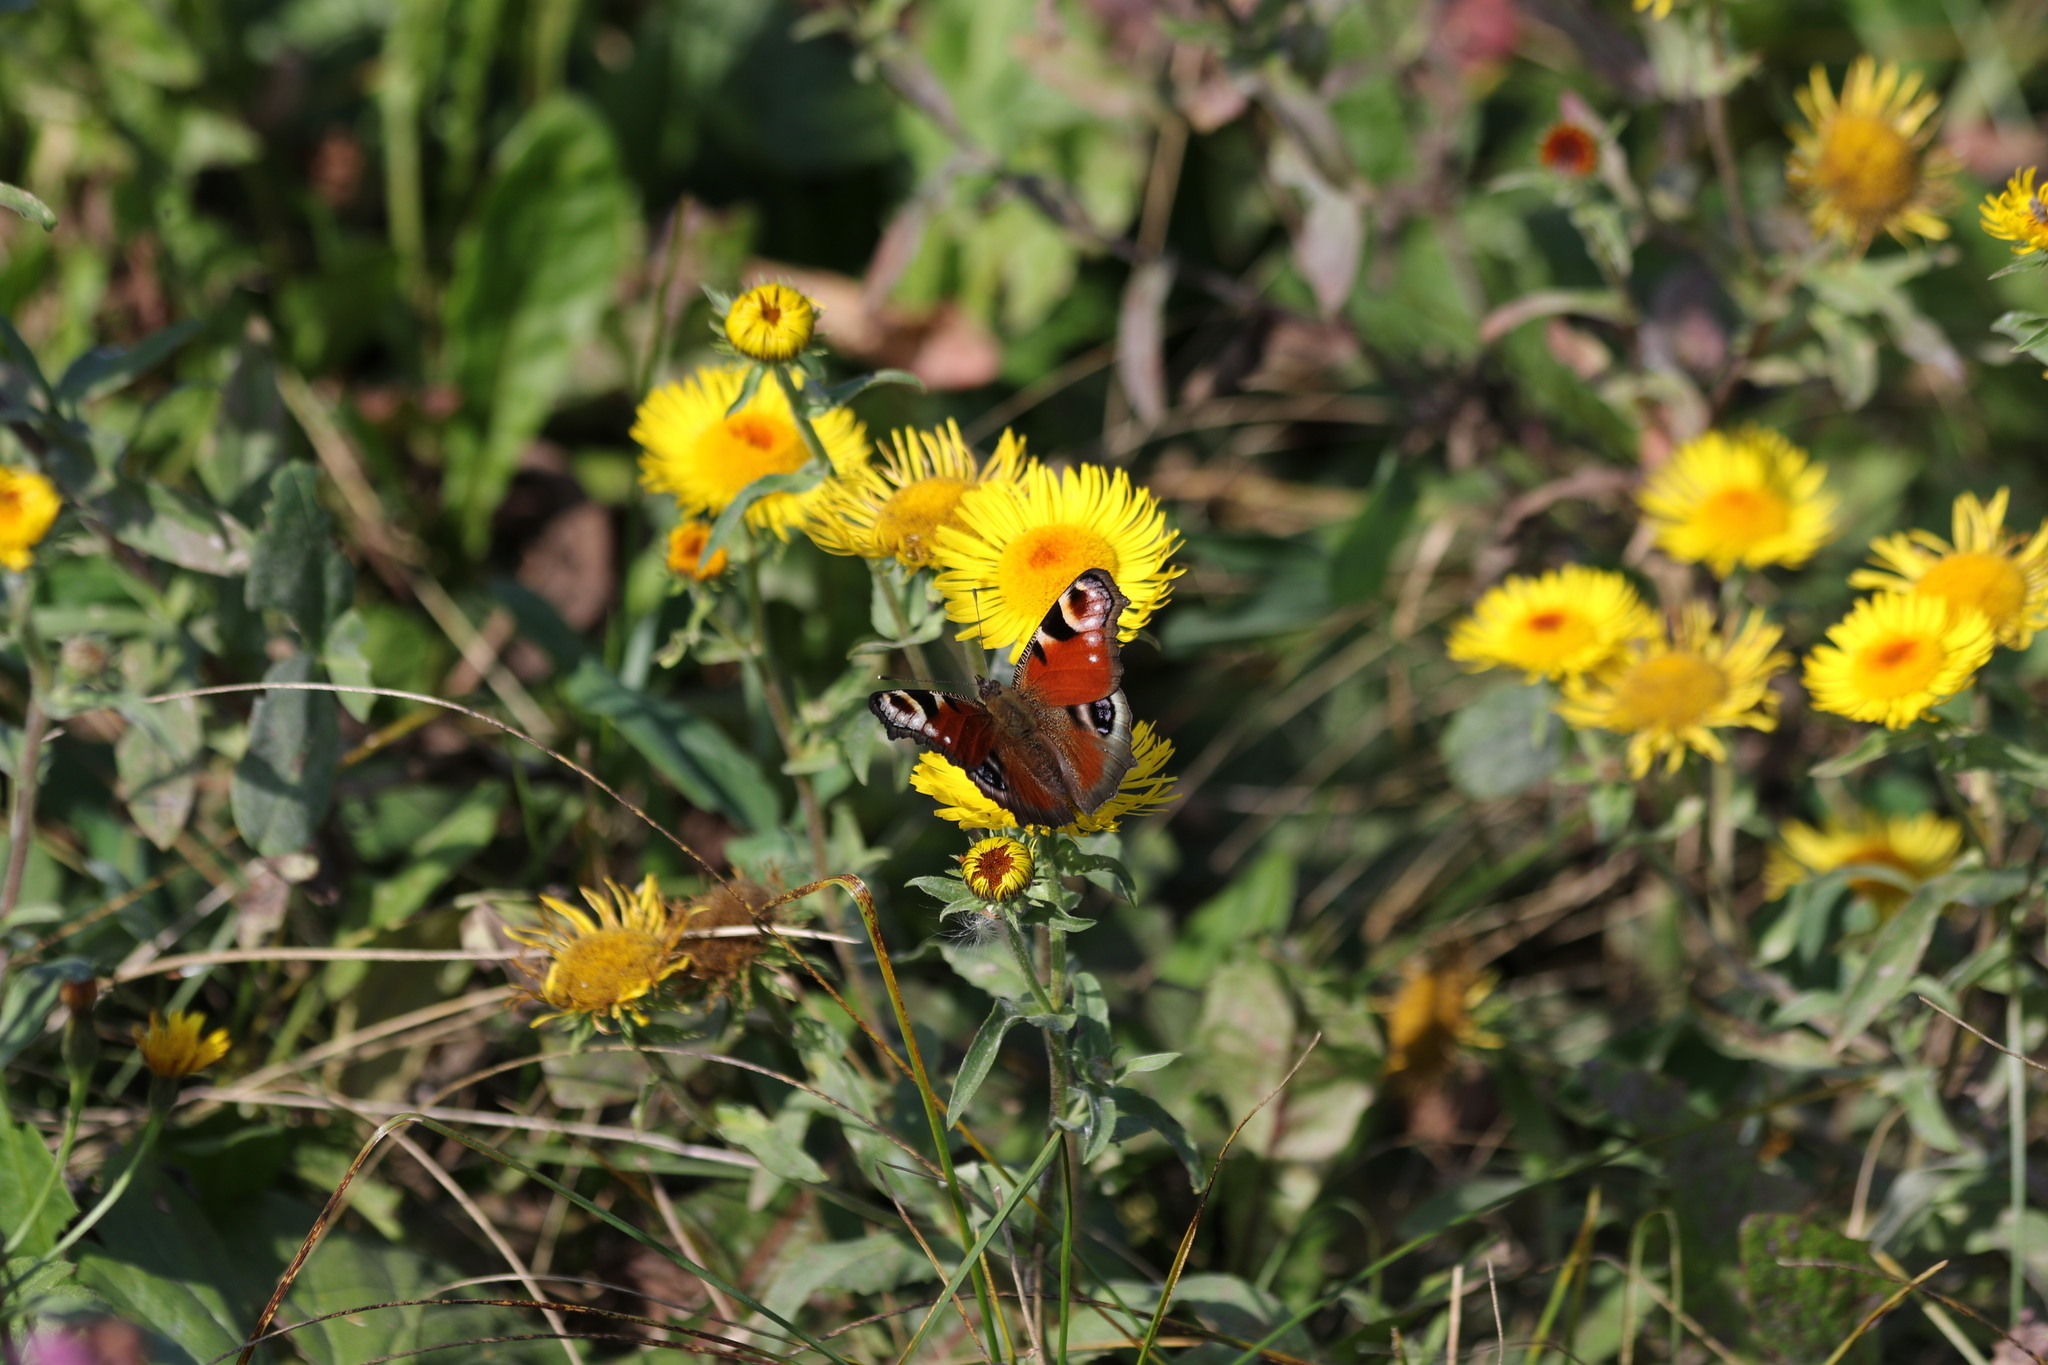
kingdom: Plantae
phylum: Tracheophyta
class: Magnoliopsida
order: Asterales
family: Asteraceae
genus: Pentanema
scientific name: Pentanema britannicum
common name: British elecampane
